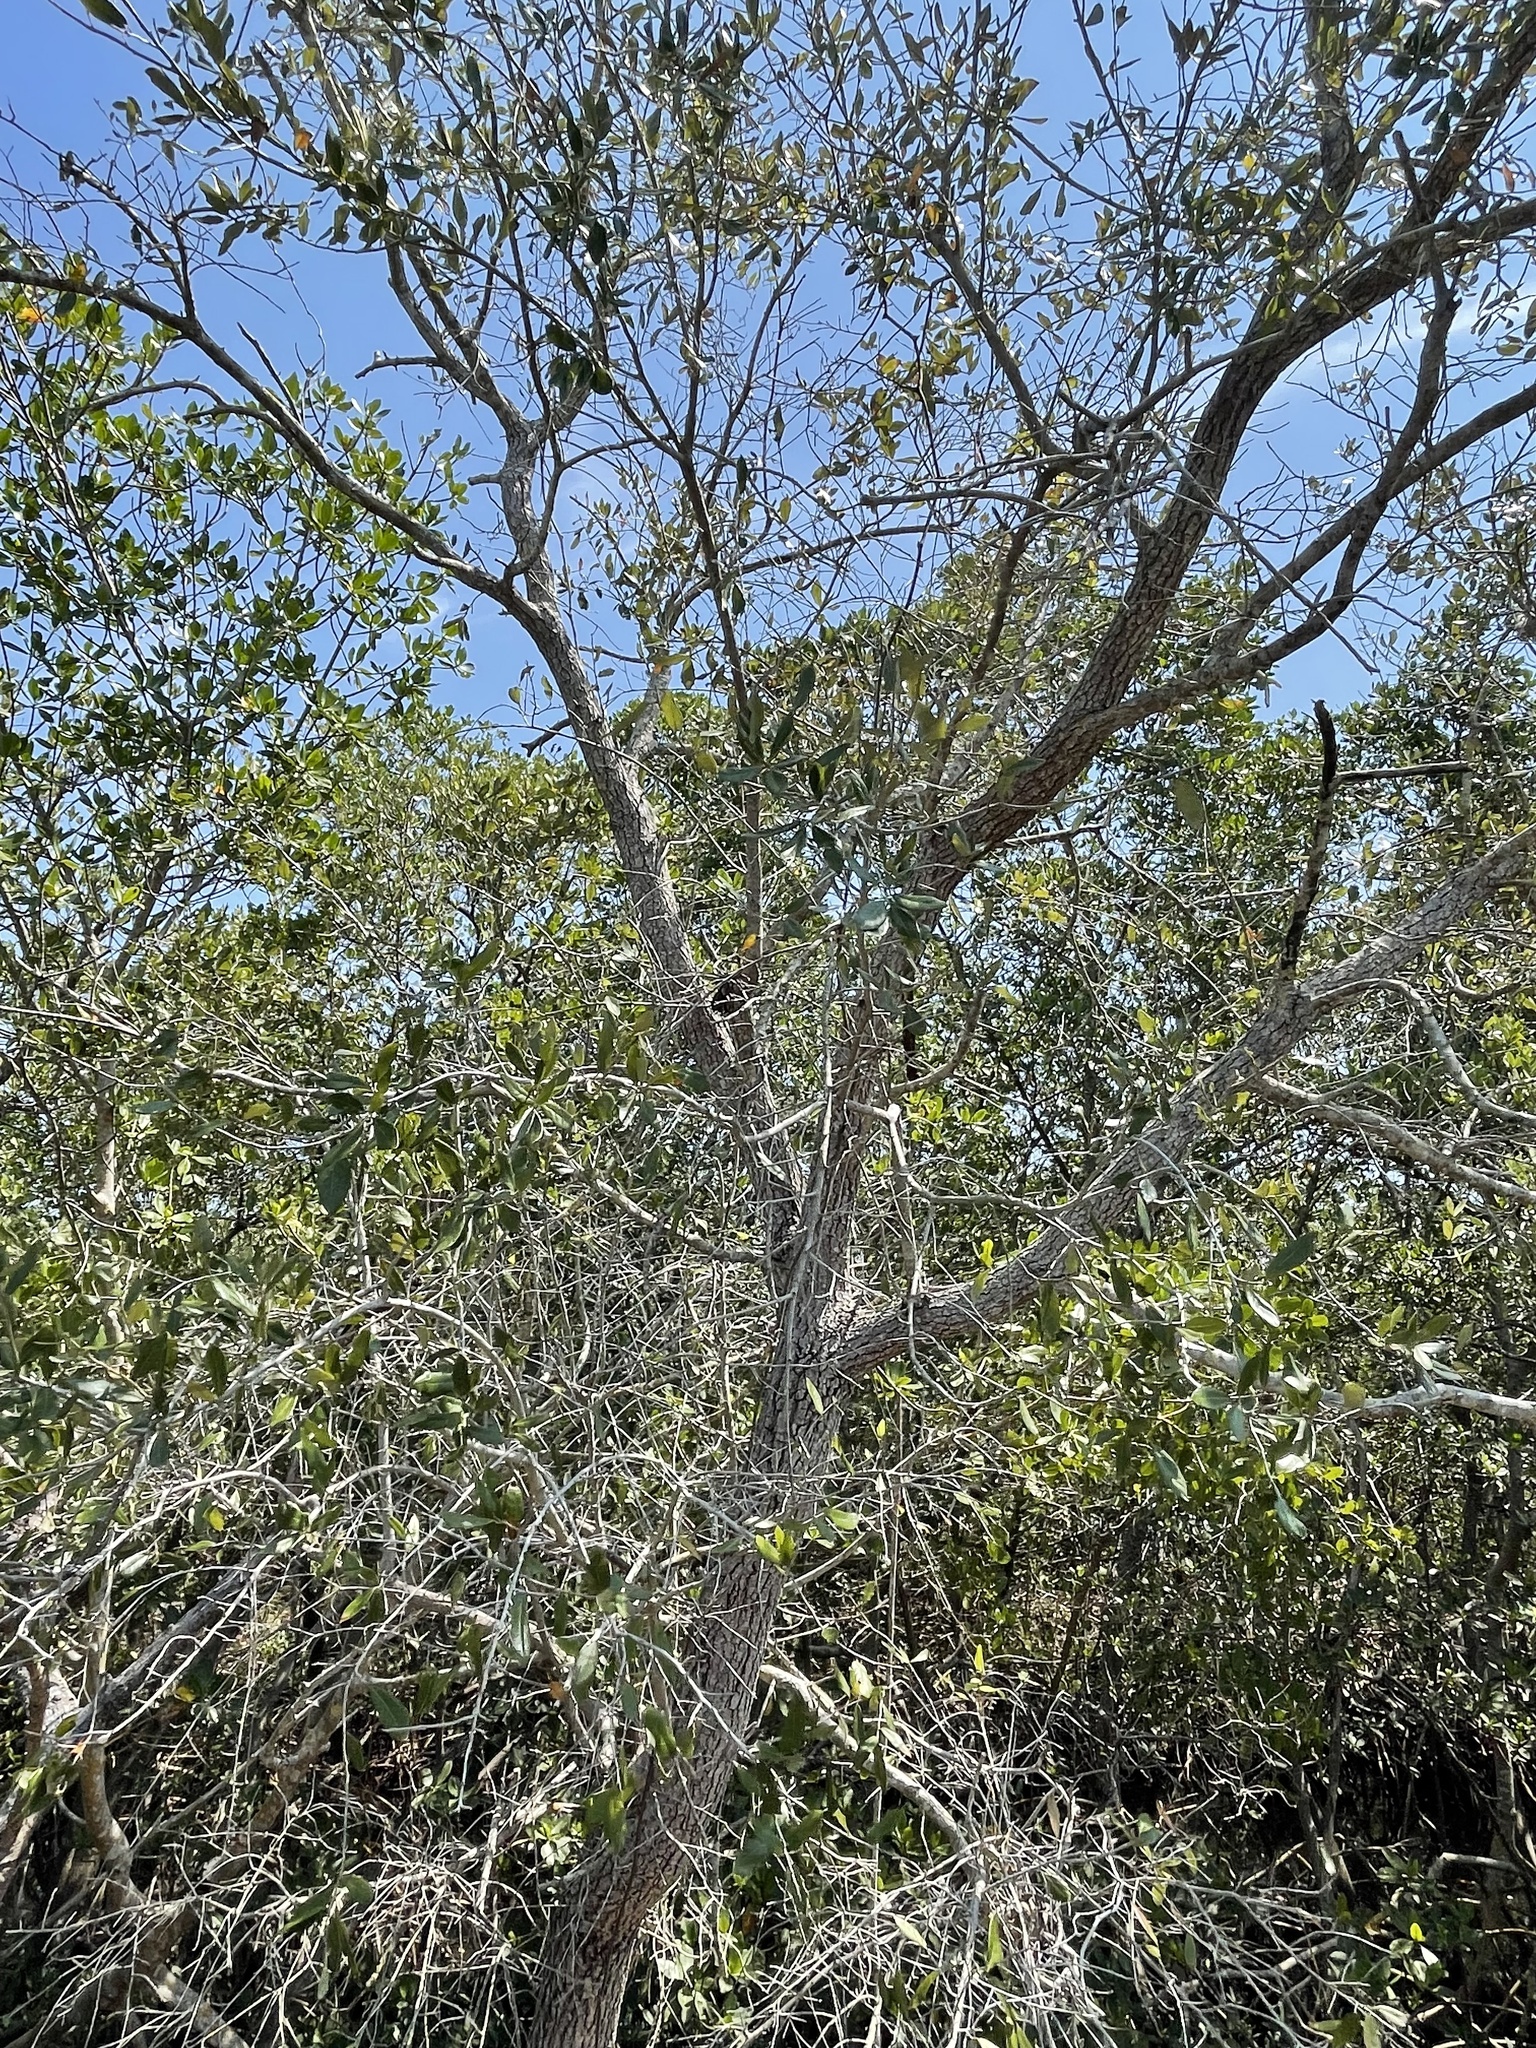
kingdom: Plantae
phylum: Tracheophyta
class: Magnoliopsida
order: Myrtales
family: Combretaceae
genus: Conocarpus
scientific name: Conocarpus erectus
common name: Button mangrove
